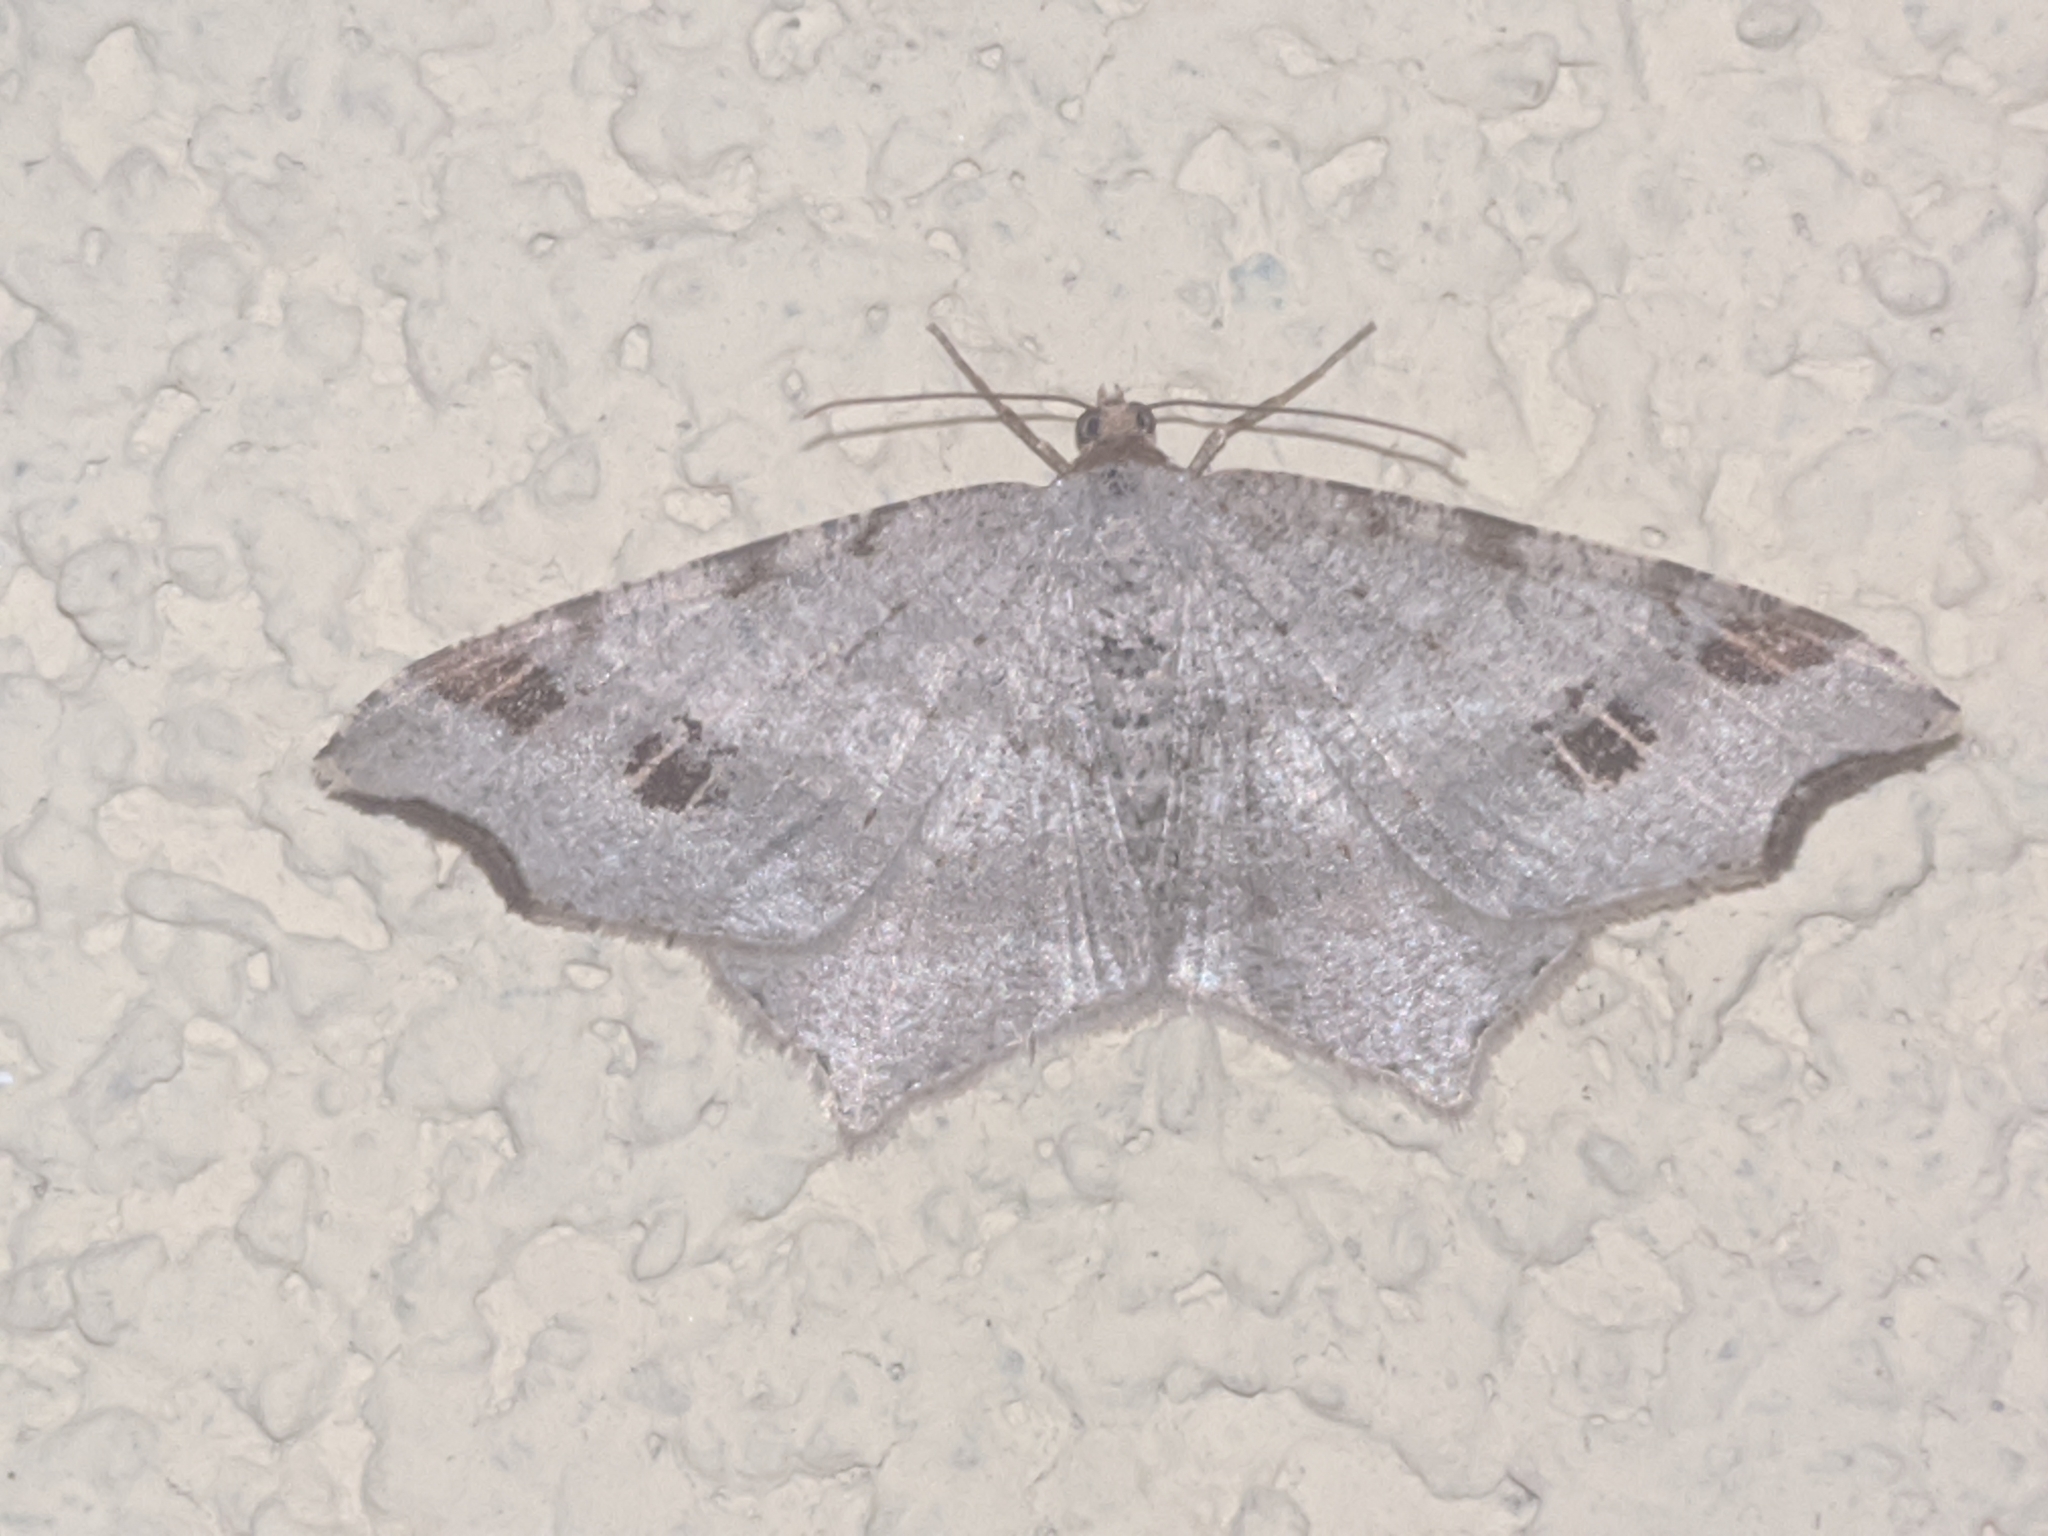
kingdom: Animalia
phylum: Arthropoda
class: Insecta
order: Lepidoptera
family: Geometridae
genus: Macaria
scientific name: Macaria alternata
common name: Sharp-angled peacock
